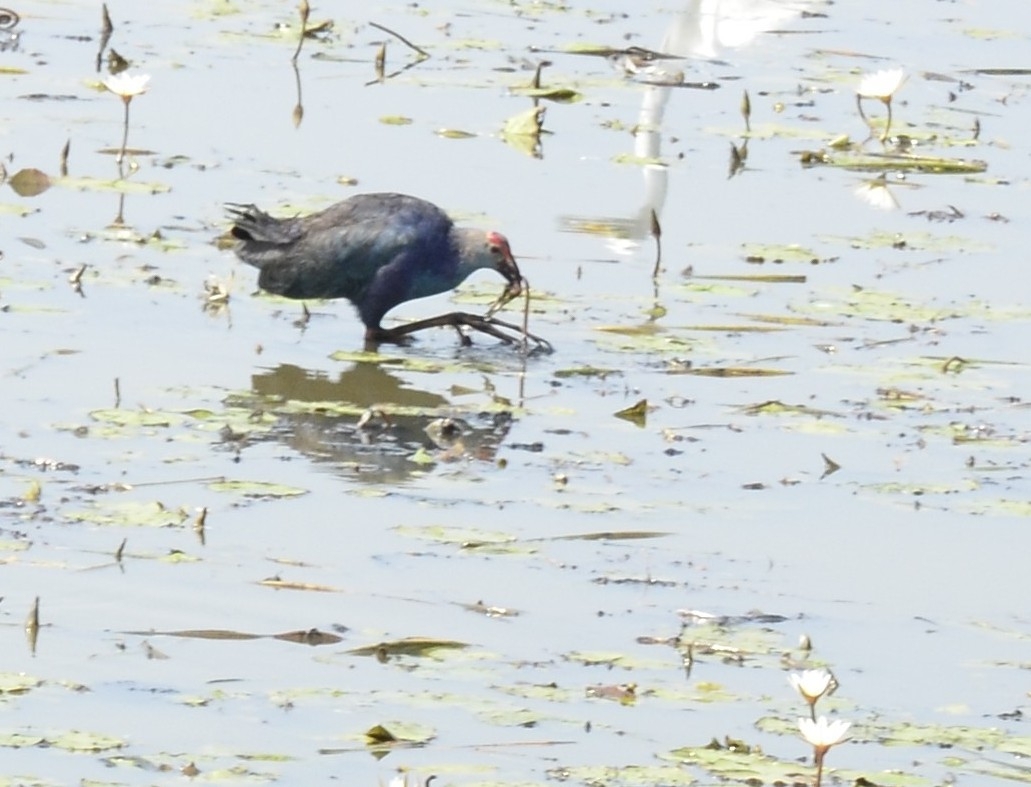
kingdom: Animalia
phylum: Chordata
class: Aves
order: Gruiformes
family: Rallidae
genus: Porphyrio
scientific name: Porphyrio porphyrio
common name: Purple swamphen
